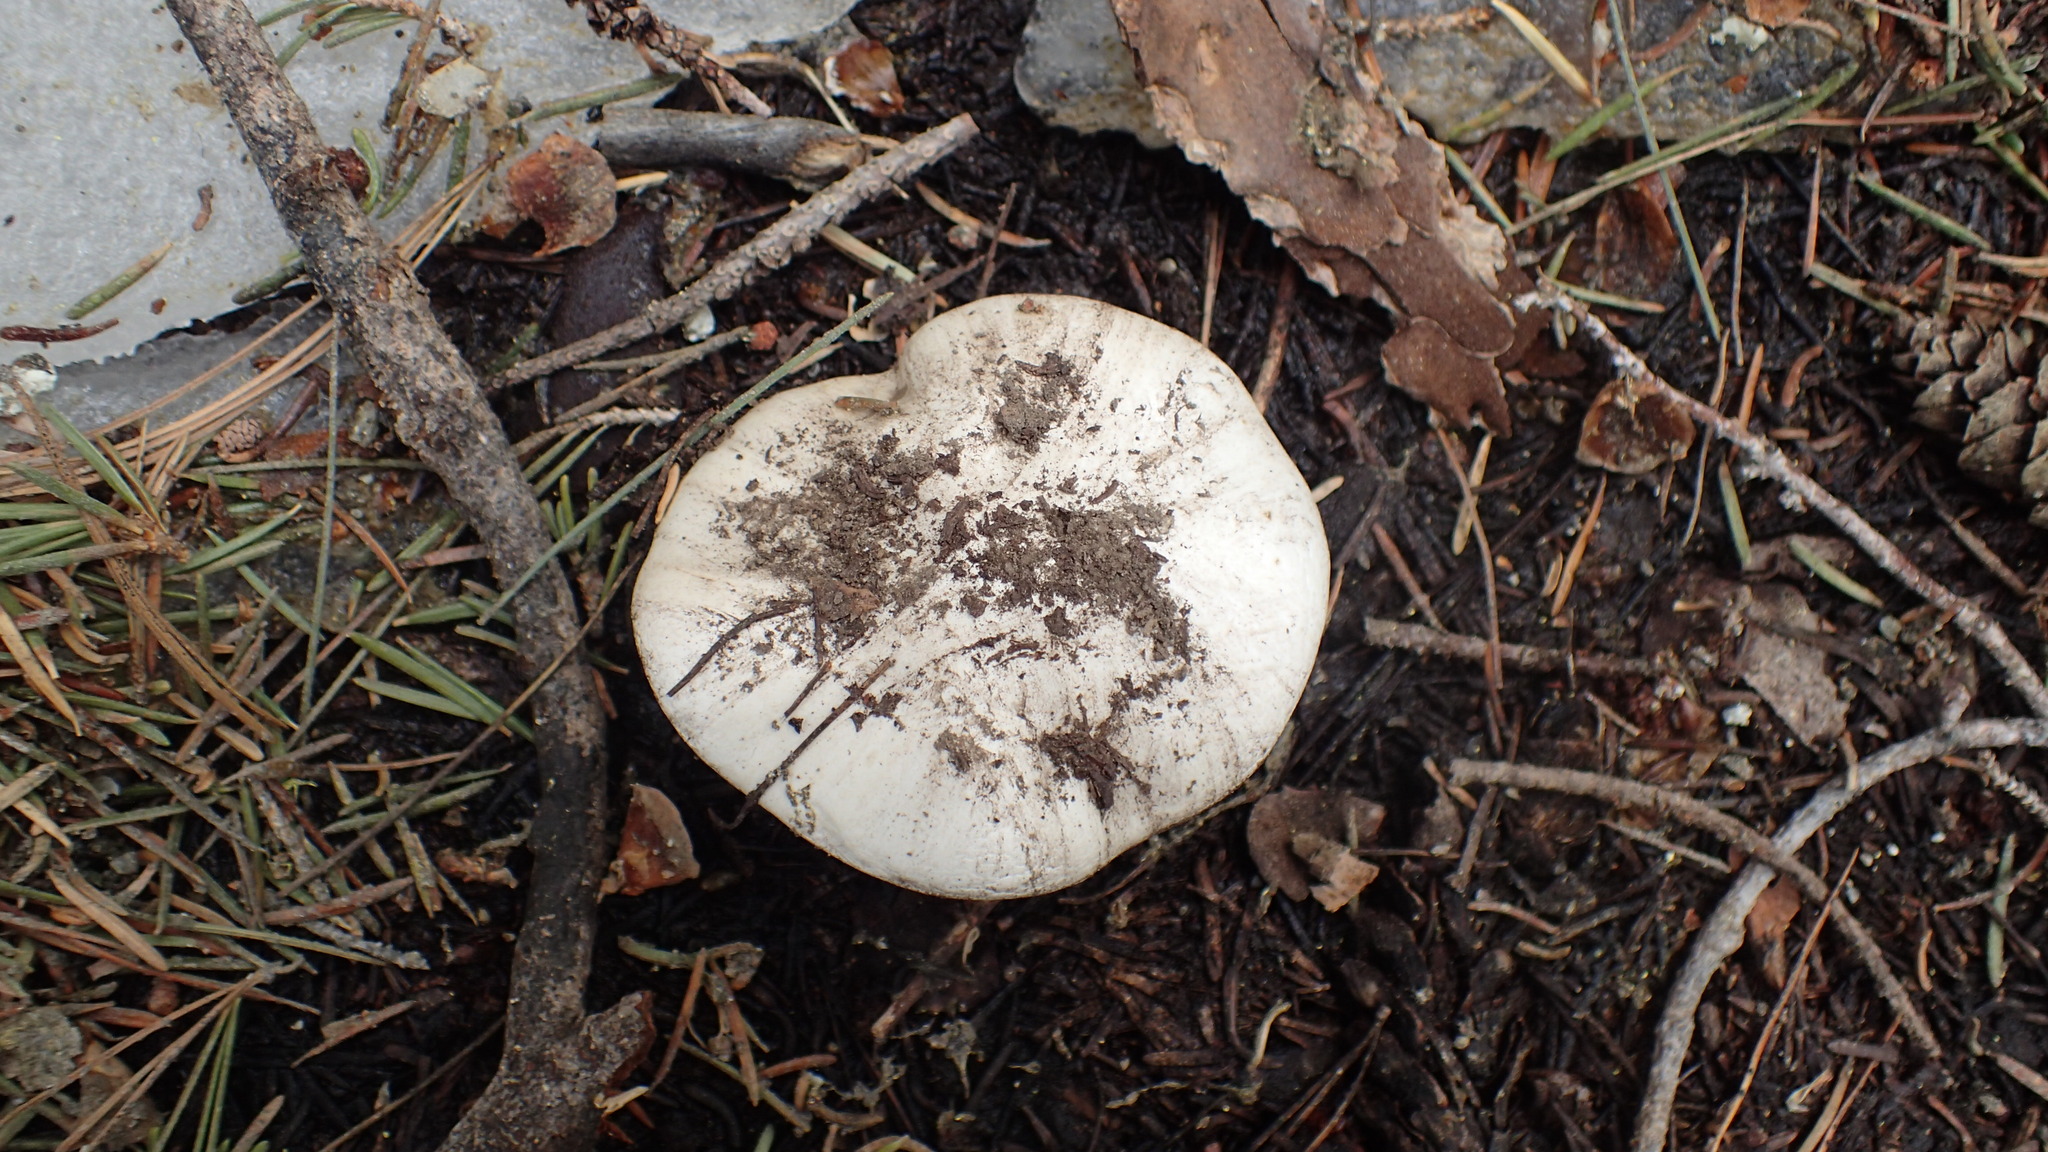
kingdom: Fungi
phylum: Basidiomycota
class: Agaricomycetes
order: Agaricales
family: Hygrophoraceae
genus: Hygrophorus
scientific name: Hygrophorus subalpinus
